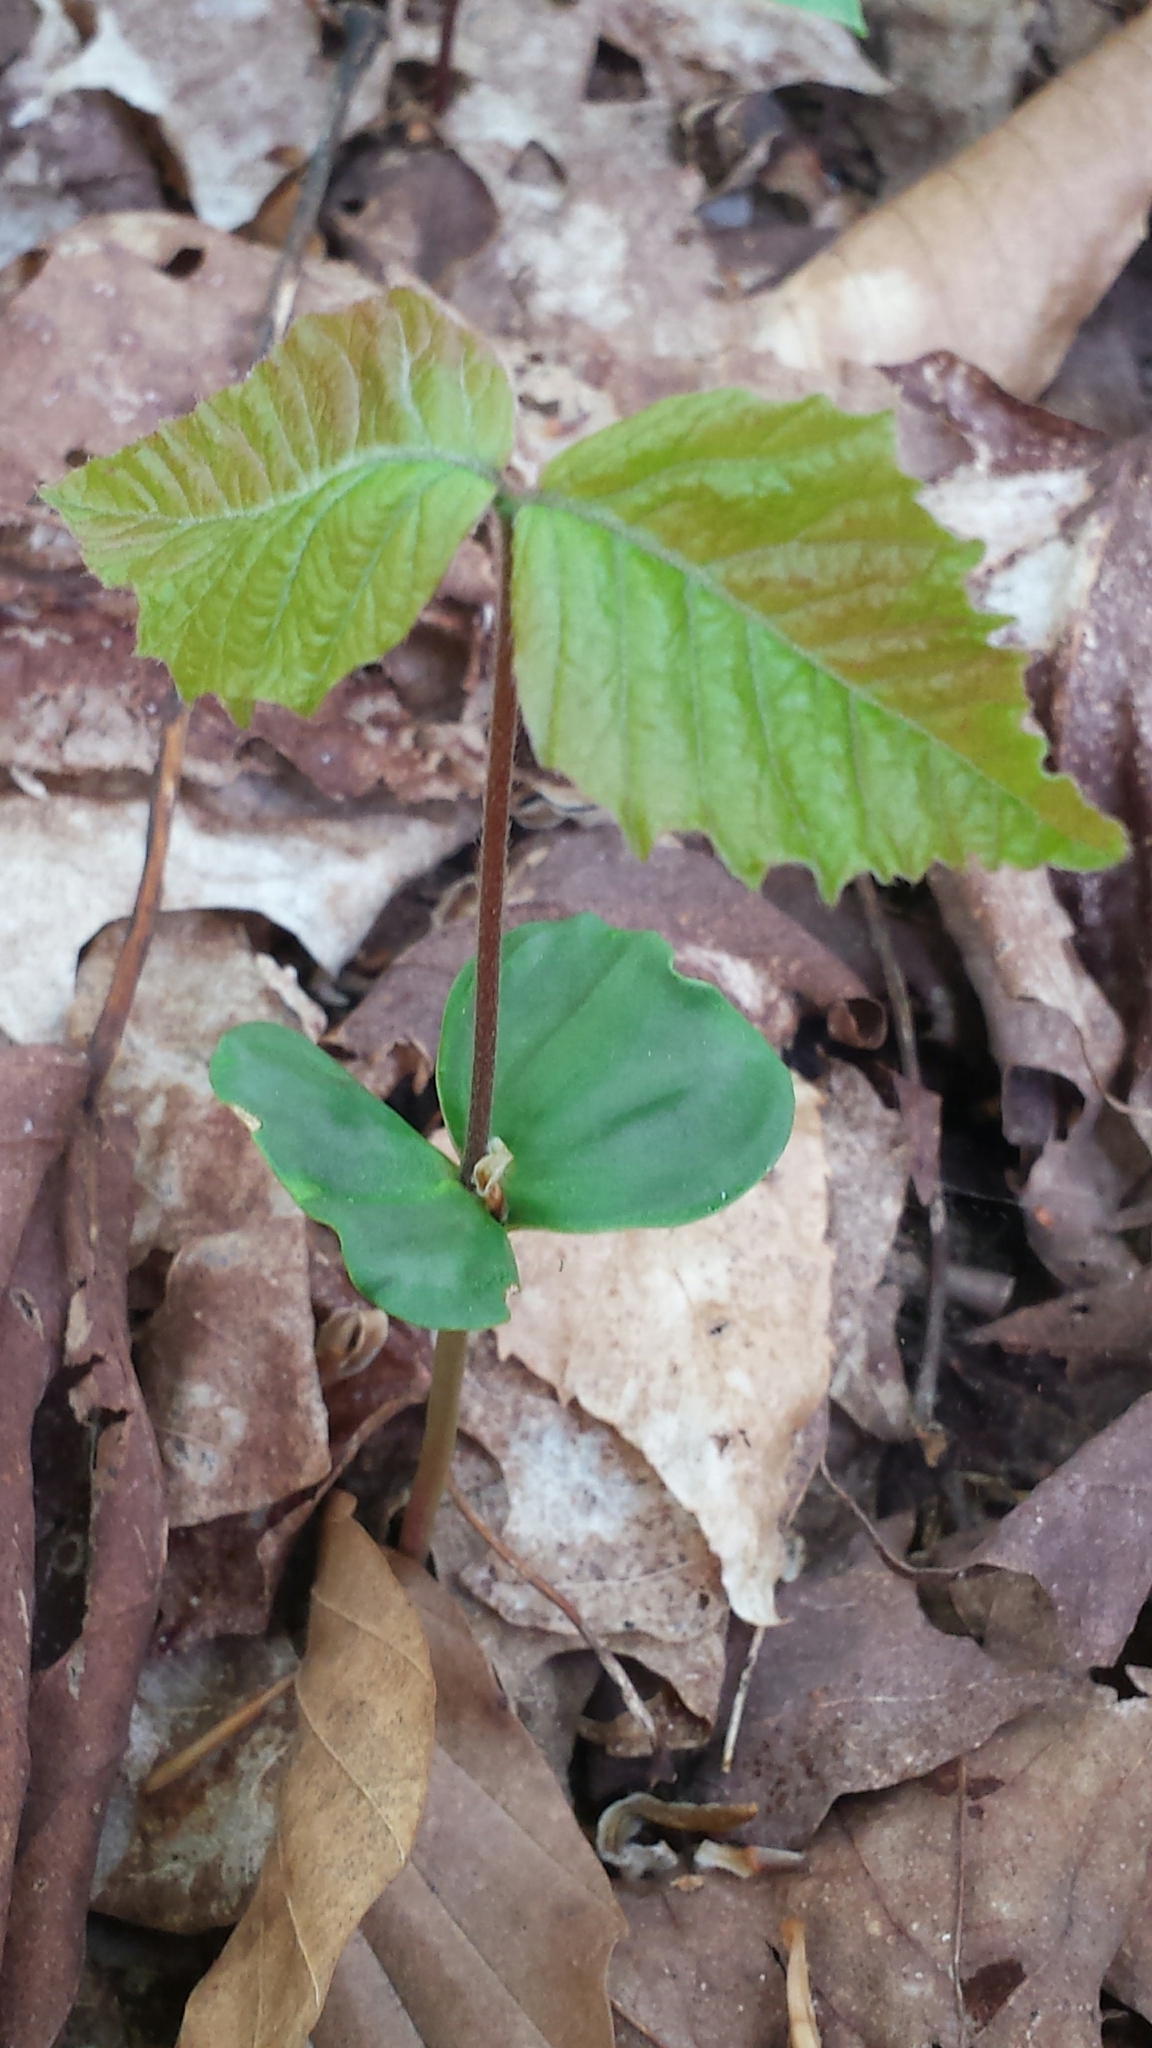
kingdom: Plantae
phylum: Tracheophyta
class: Magnoliopsida
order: Fagales
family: Fagaceae
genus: Fagus
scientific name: Fagus grandifolia
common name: American beech
